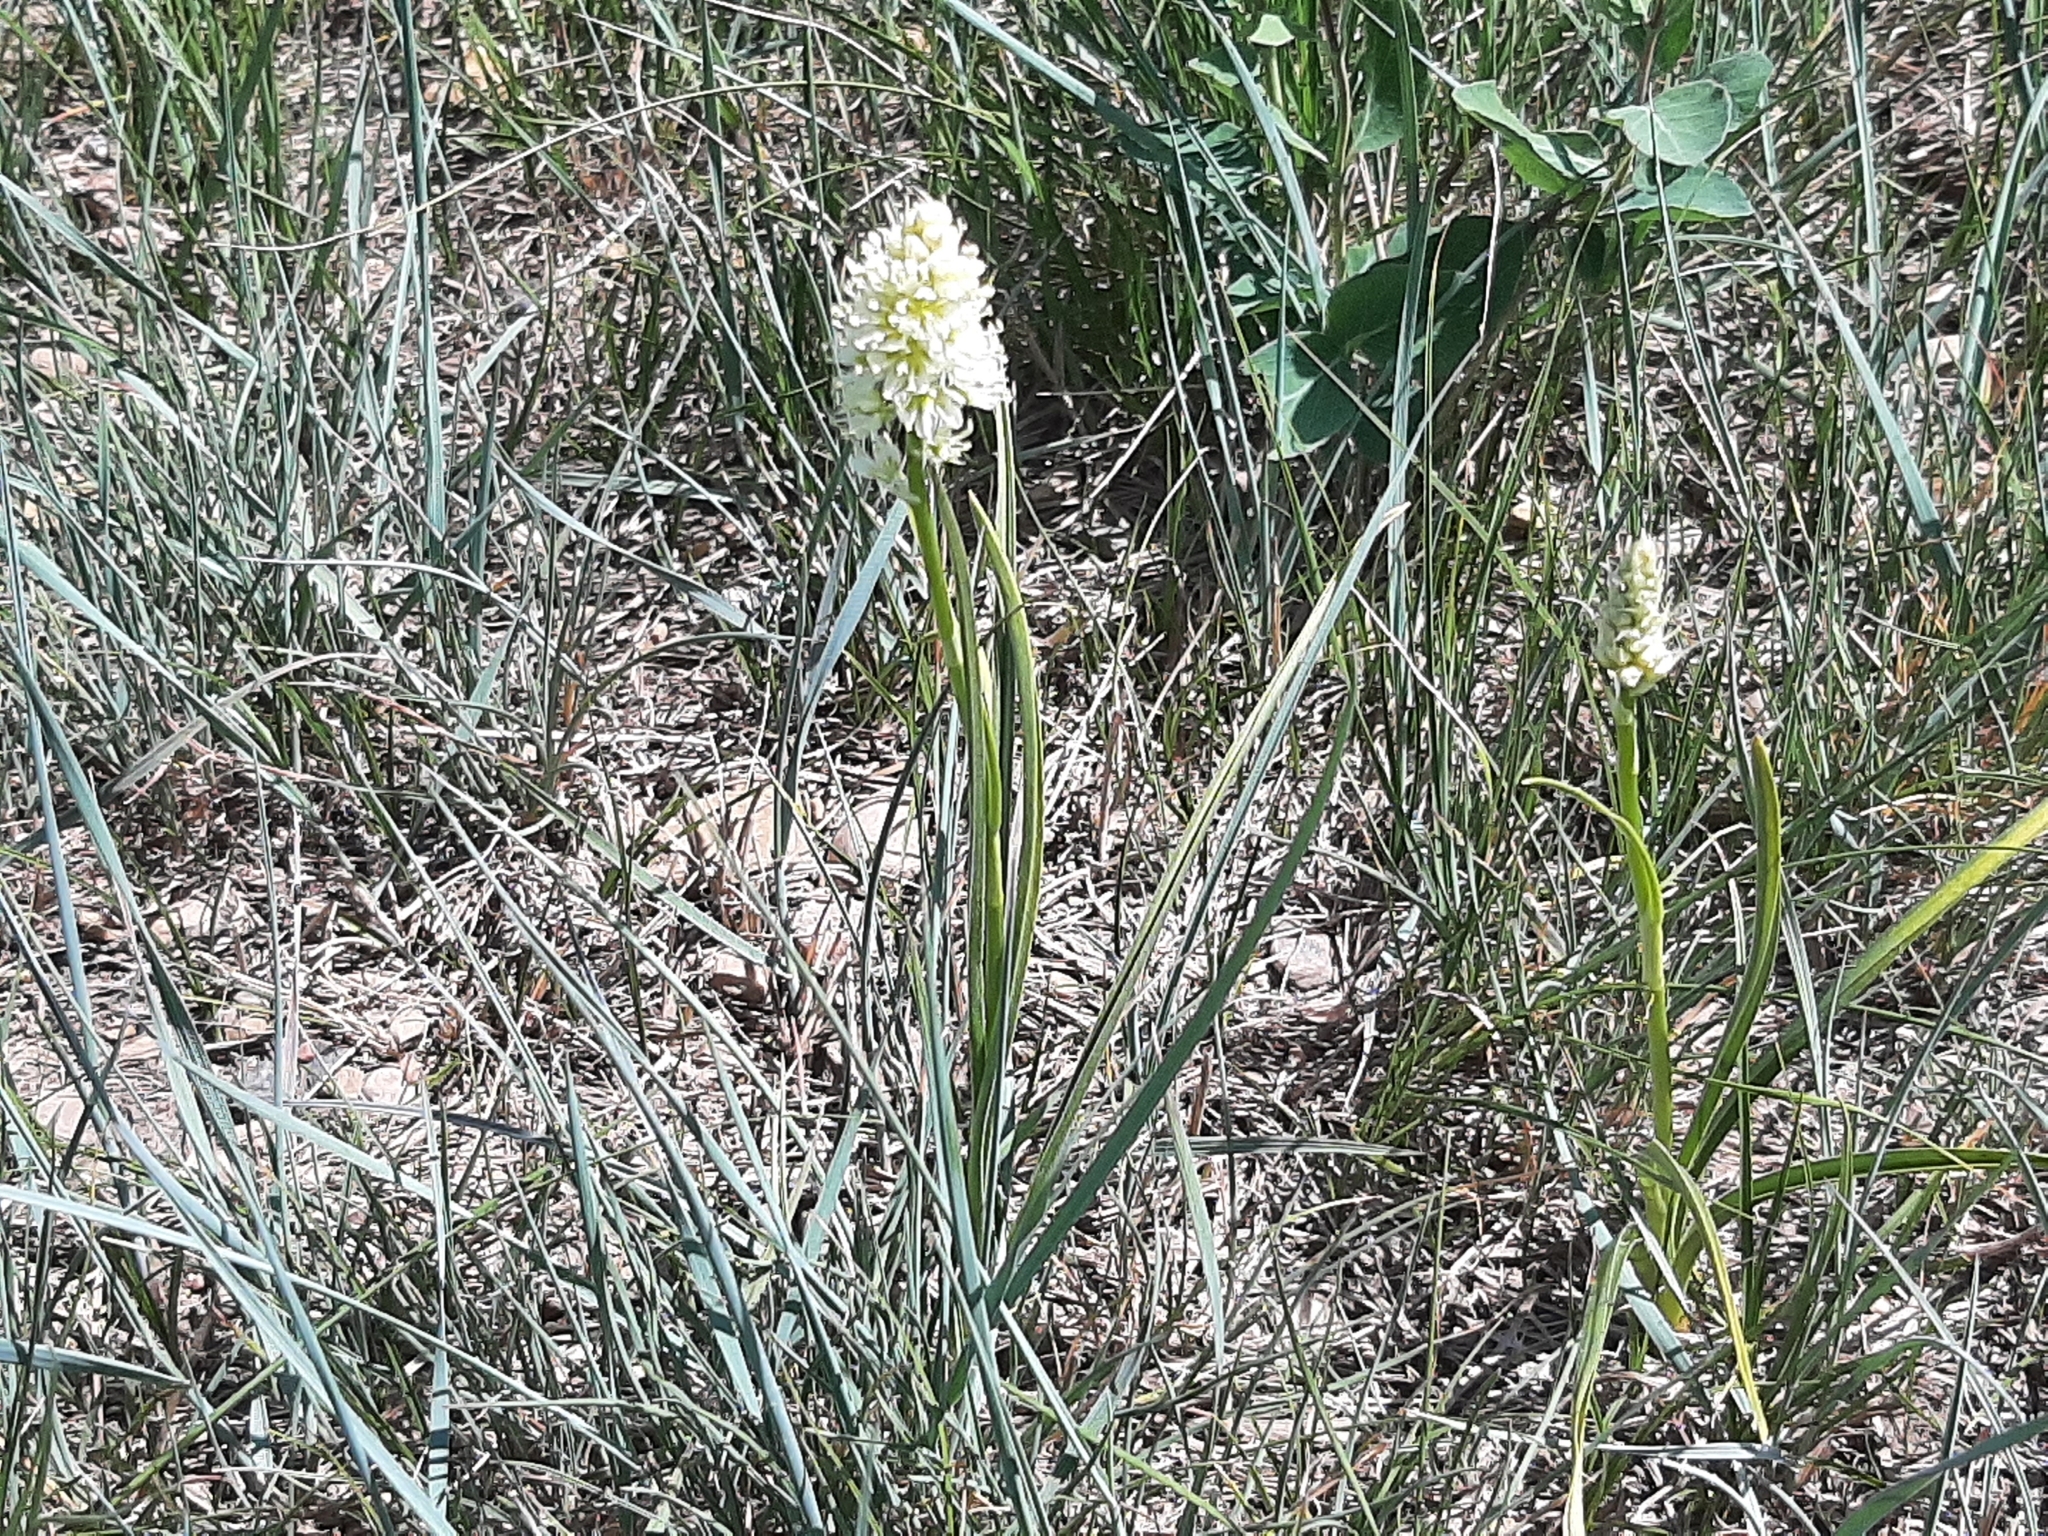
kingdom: Plantae
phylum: Tracheophyta
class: Liliopsida
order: Liliales
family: Melanthiaceae
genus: Toxicoscordion
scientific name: Toxicoscordion venenosum
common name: Meadow death camas
